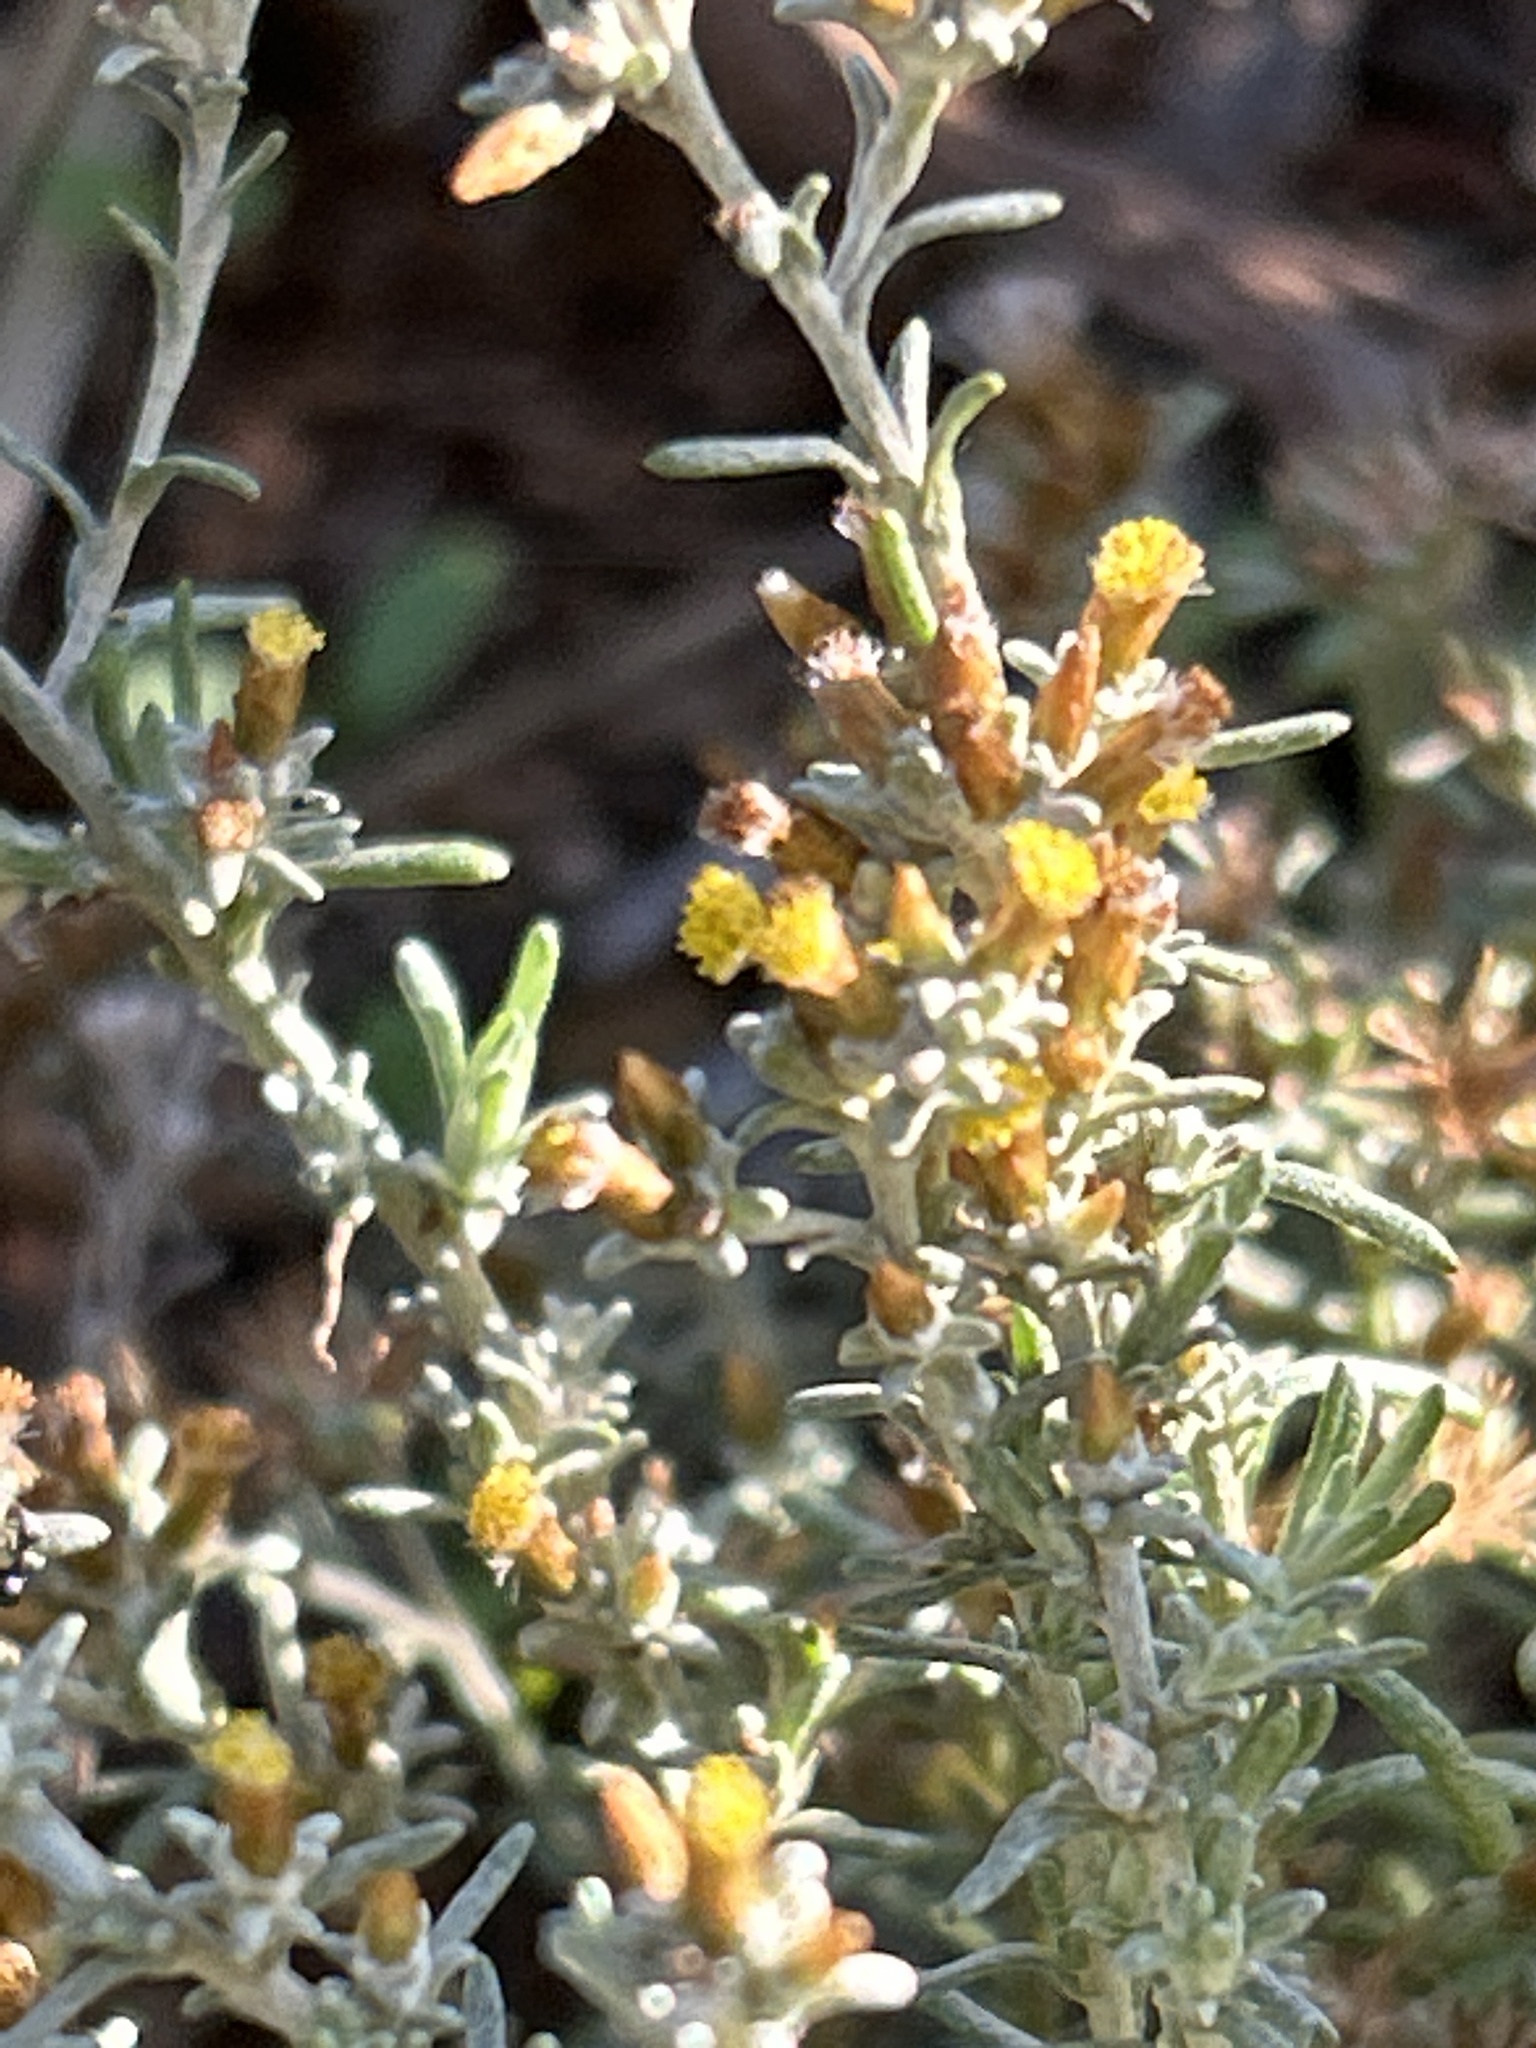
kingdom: Plantae
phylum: Tracheophyta
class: Magnoliopsida
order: Asterales
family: Asteraceae
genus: Helichrysum
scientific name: Helichrysum asperum
